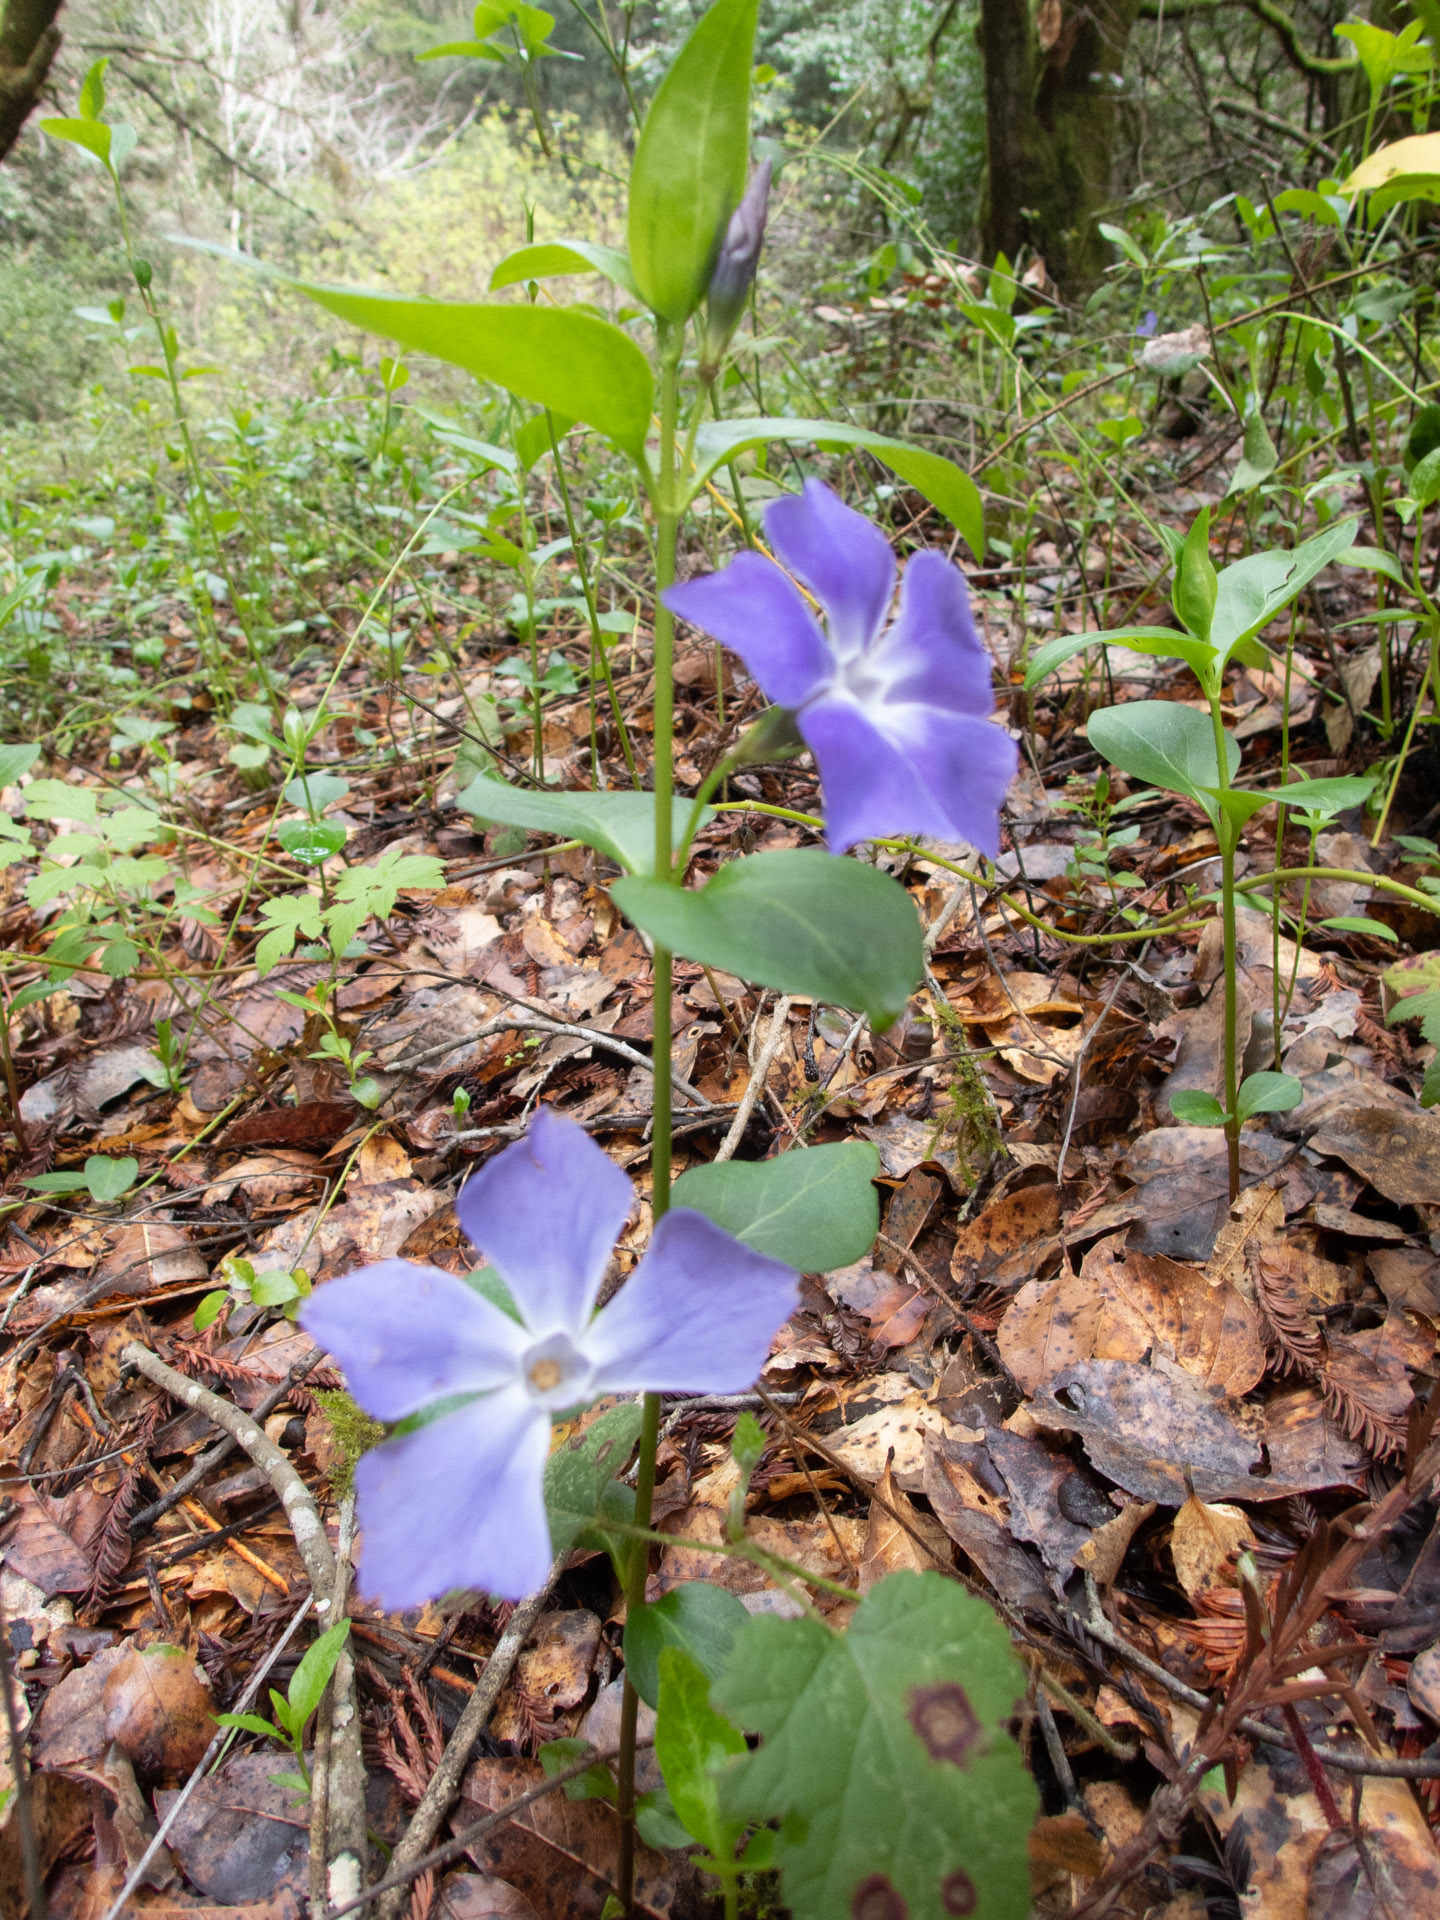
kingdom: Plantae
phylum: Tracheophyta
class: Magnoliopsida
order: Gentianales
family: Apocynaceae
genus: Vinca
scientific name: Vinca major
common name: Greater periwinkle
